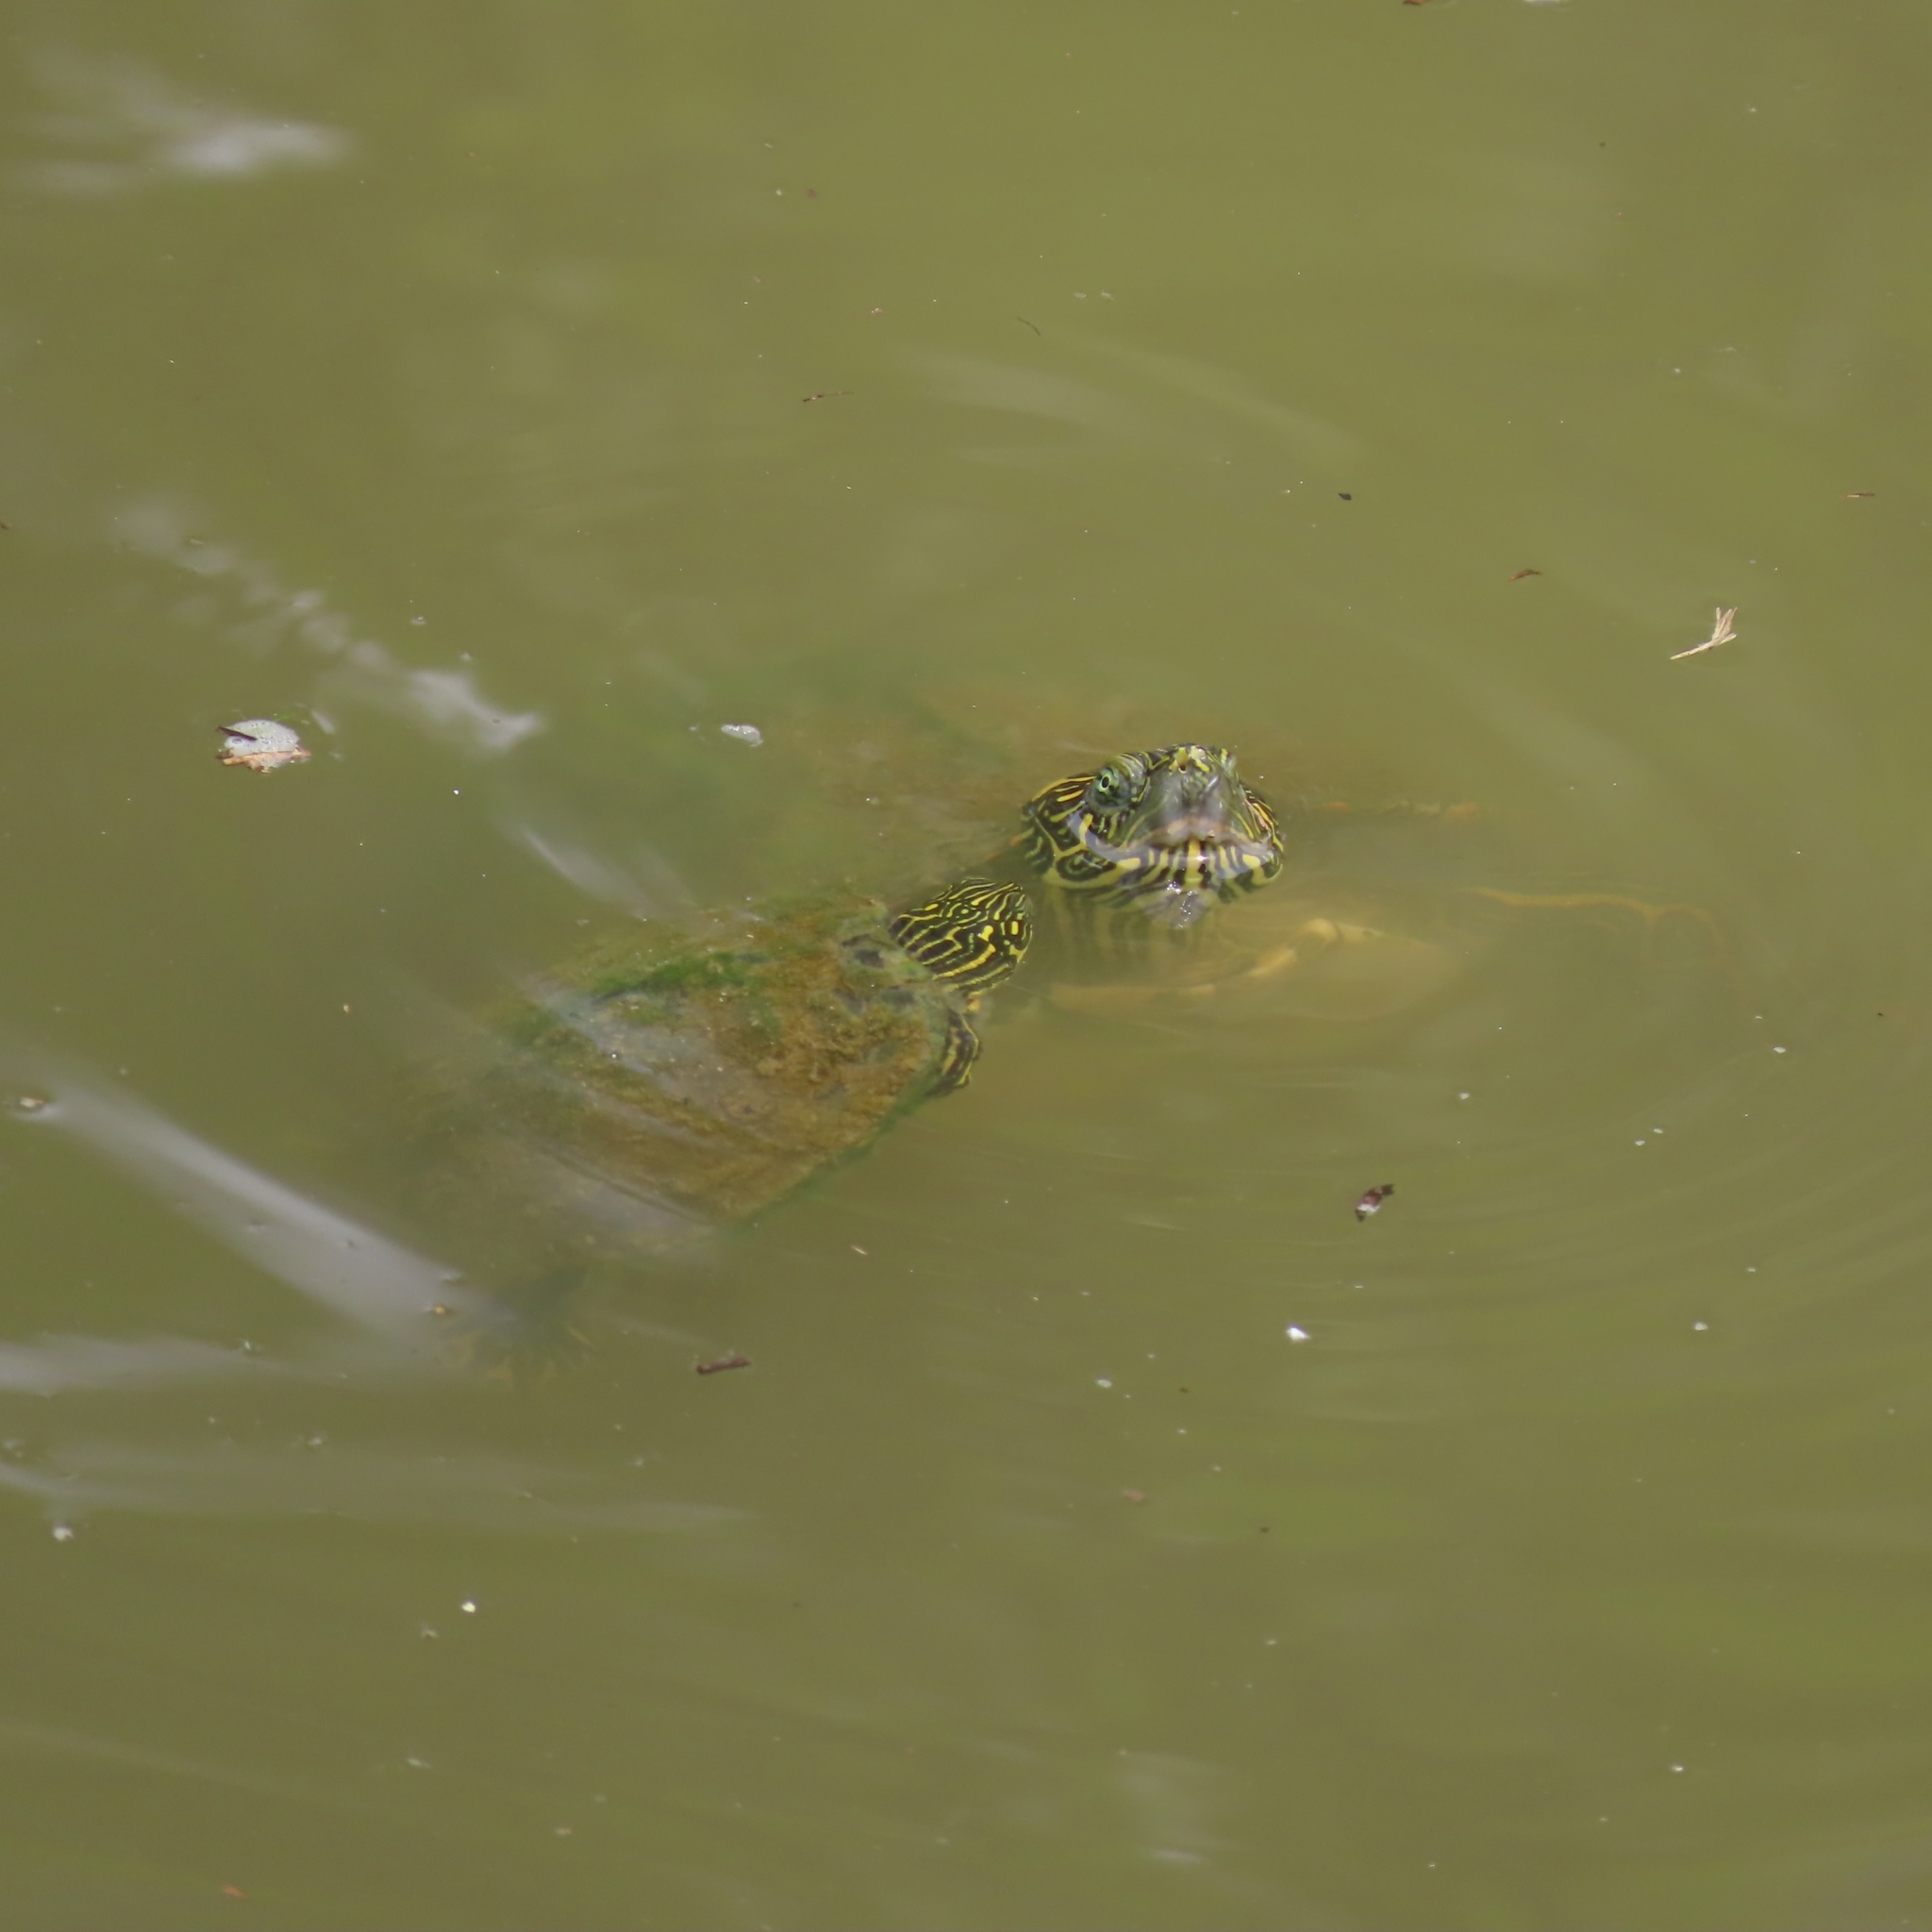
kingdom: Animalia
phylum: Chordata
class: Testudines
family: Emydidae
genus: Pseudemys
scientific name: Pseudemys texana
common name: Texas river cooter
